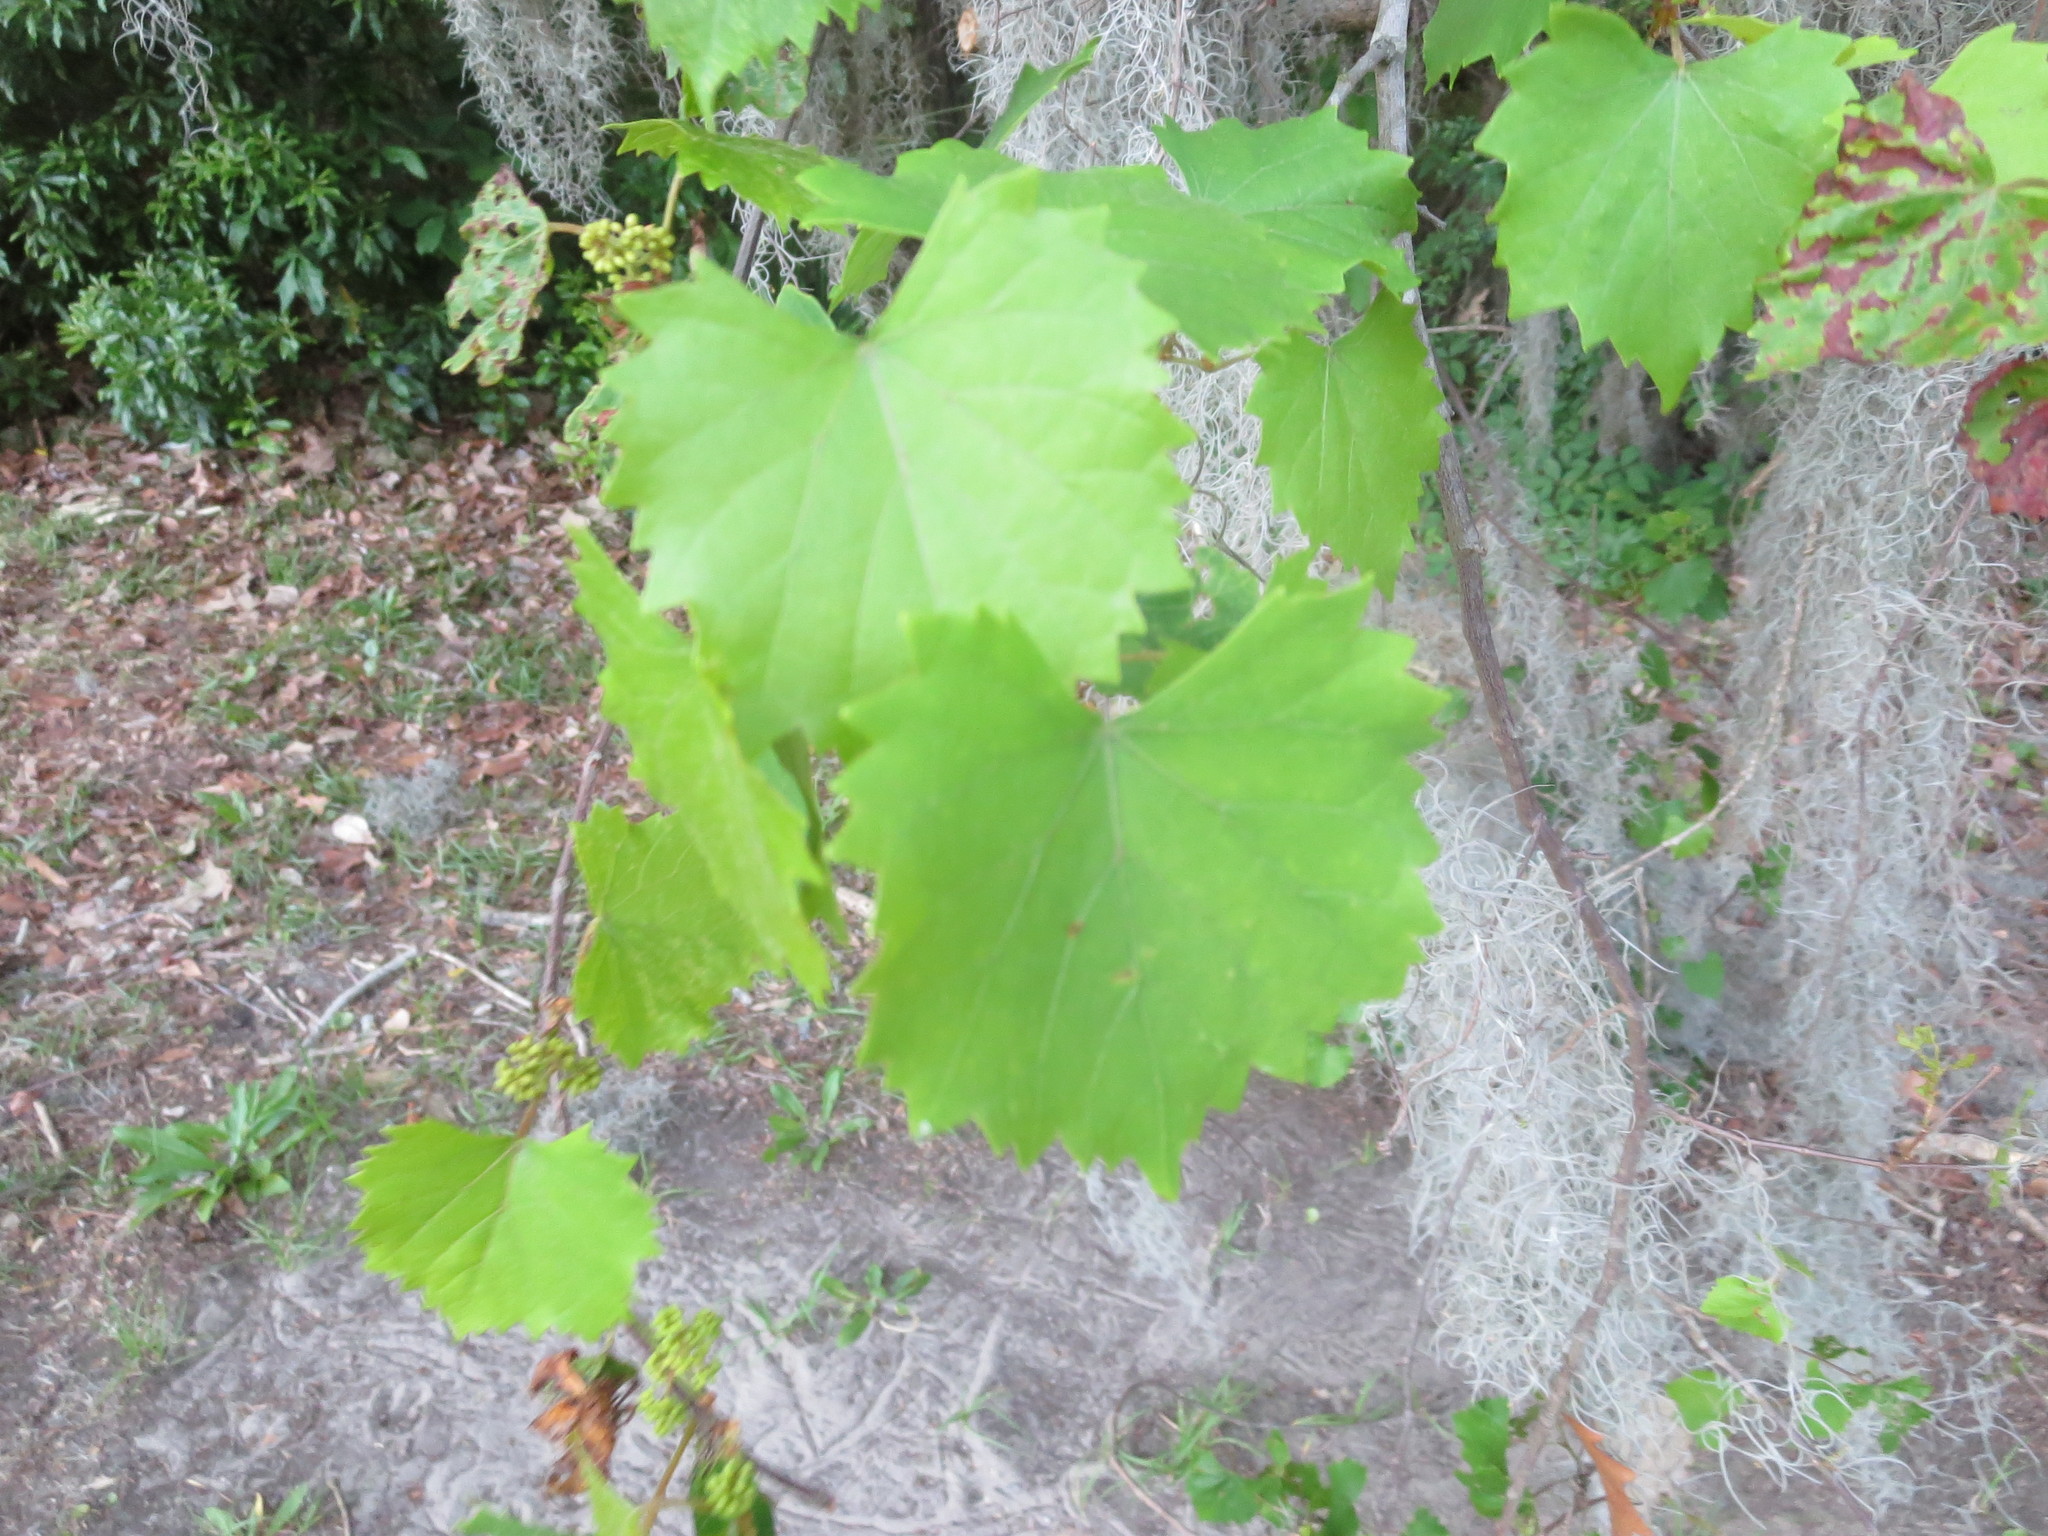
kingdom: Plantae
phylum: Tracheophyta
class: Magnoliopsida
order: Vitales
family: Vitaceae
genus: Vitis
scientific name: Vitis rotundifolia
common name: Muscadine grape
